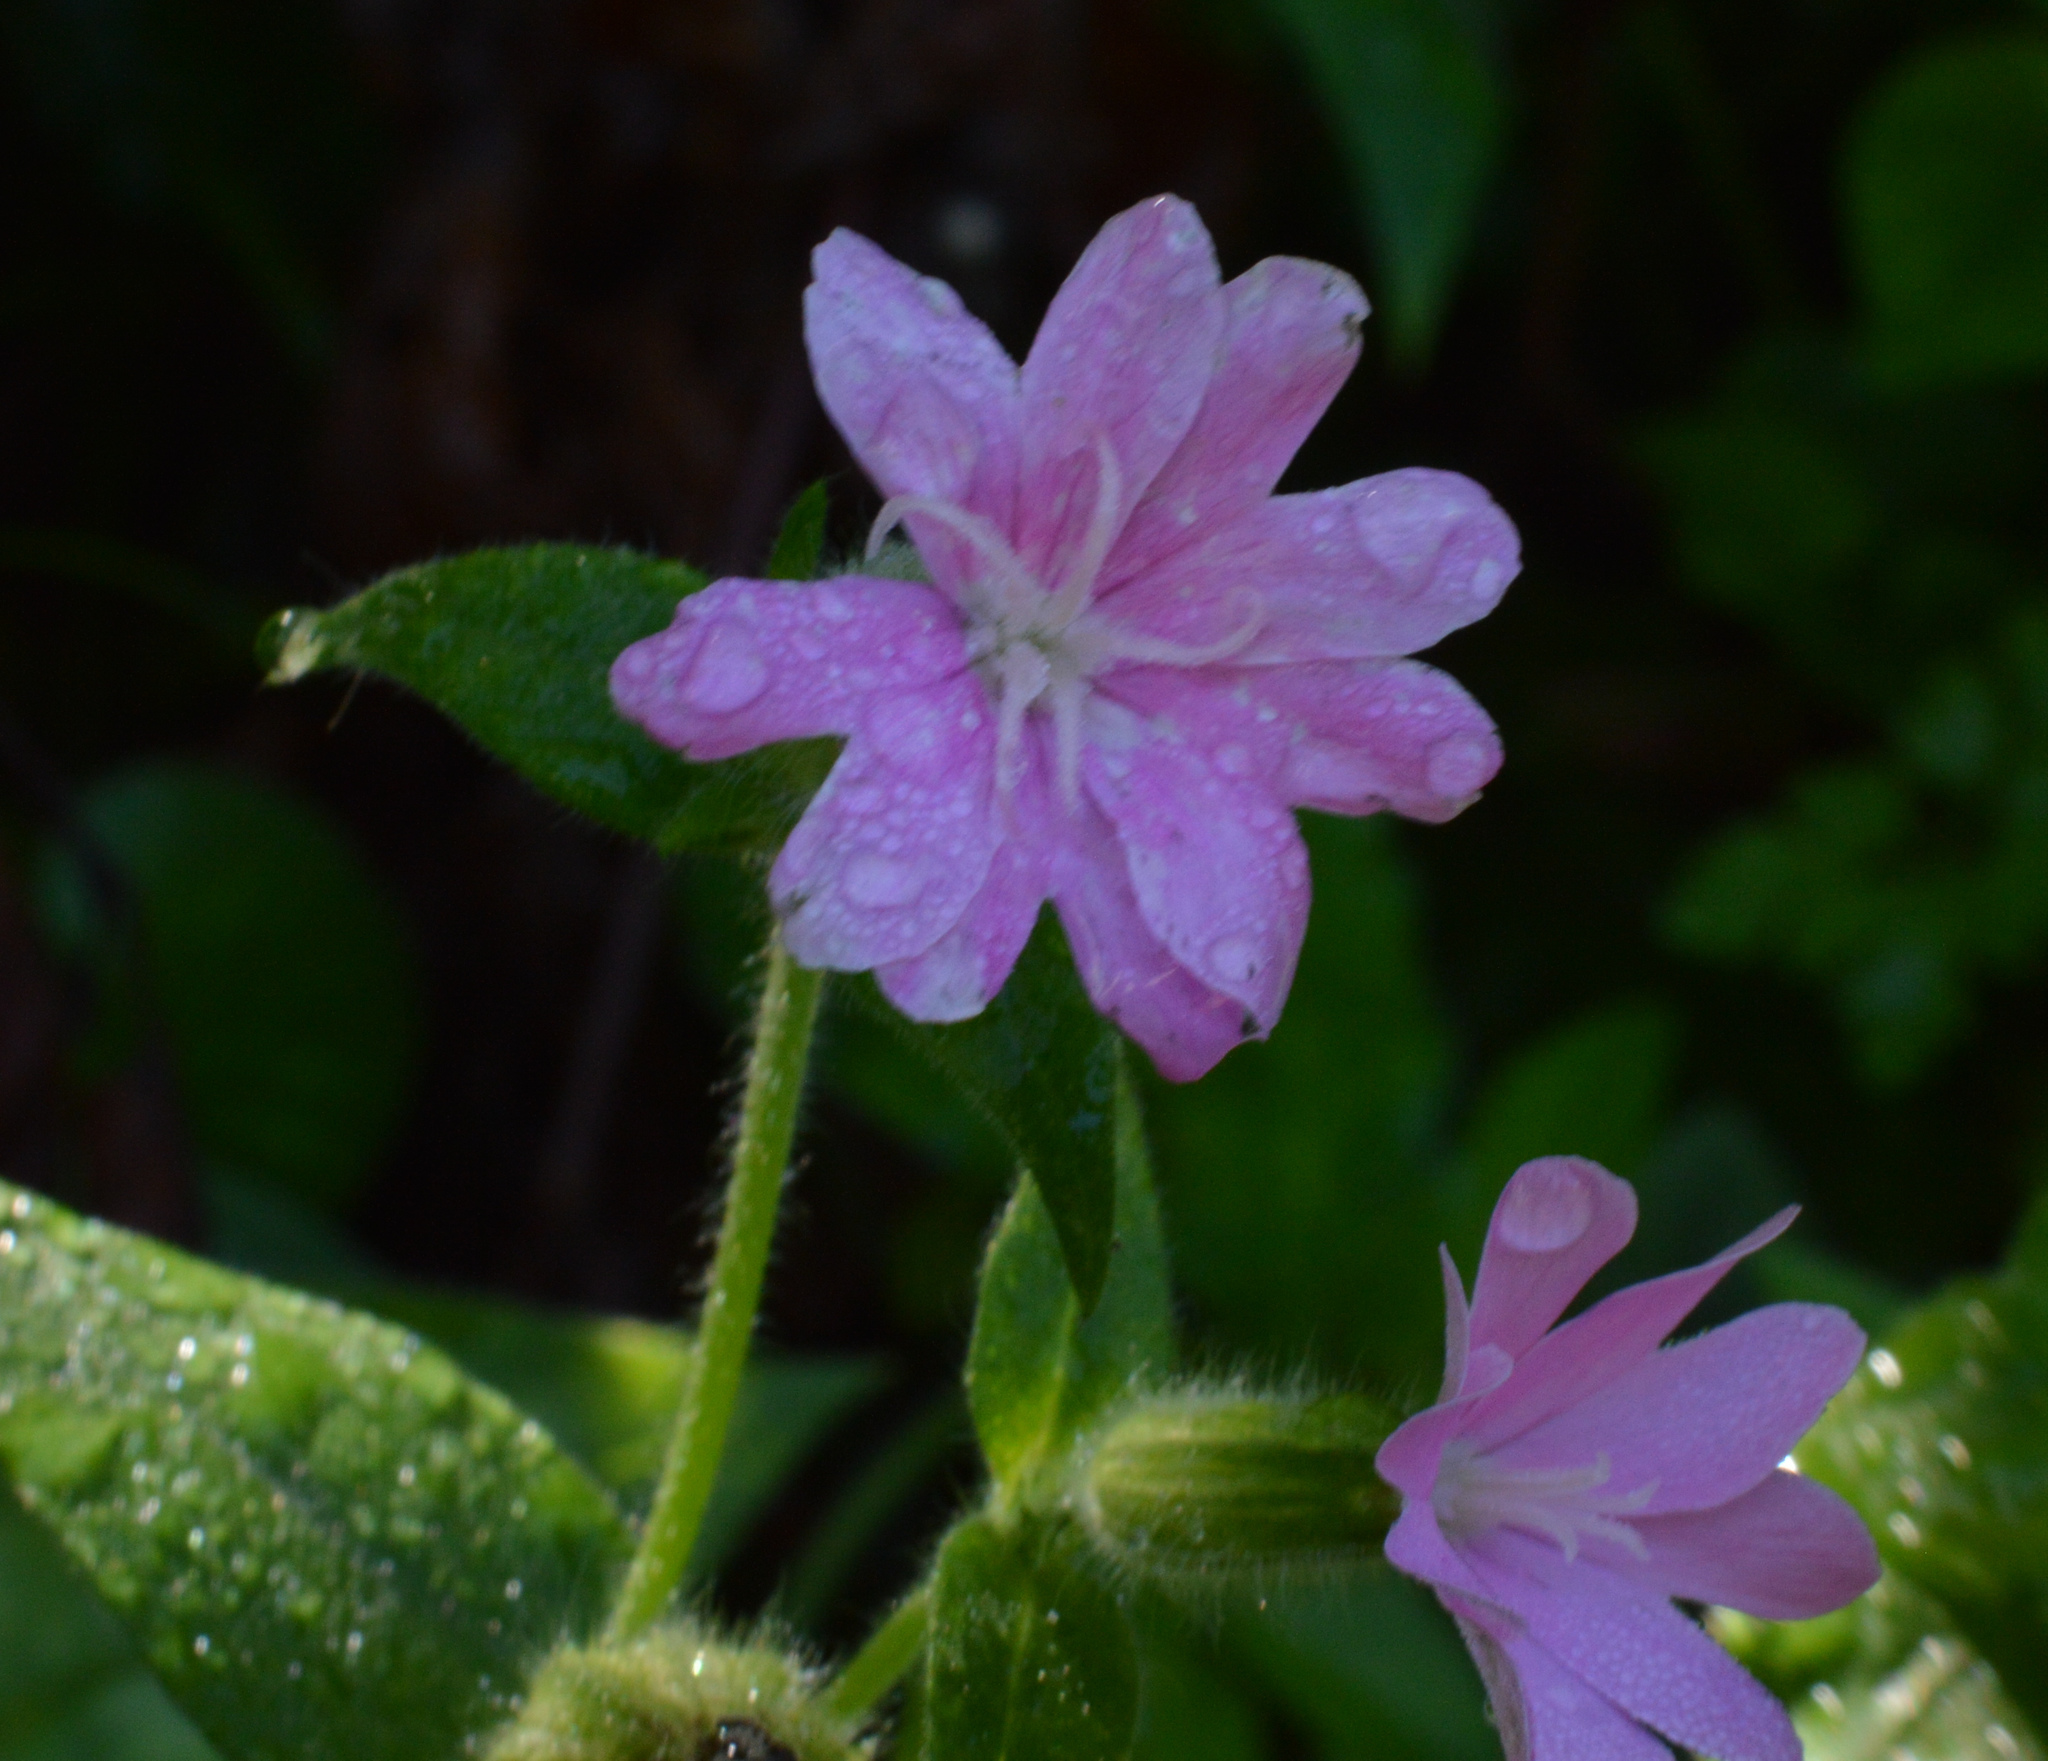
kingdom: Plantae
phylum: Tracheophyta
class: Magnoliopsida
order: Caryophyllales
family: Caryophyllaceae
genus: Silene
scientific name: Silene dioica
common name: Red campion
